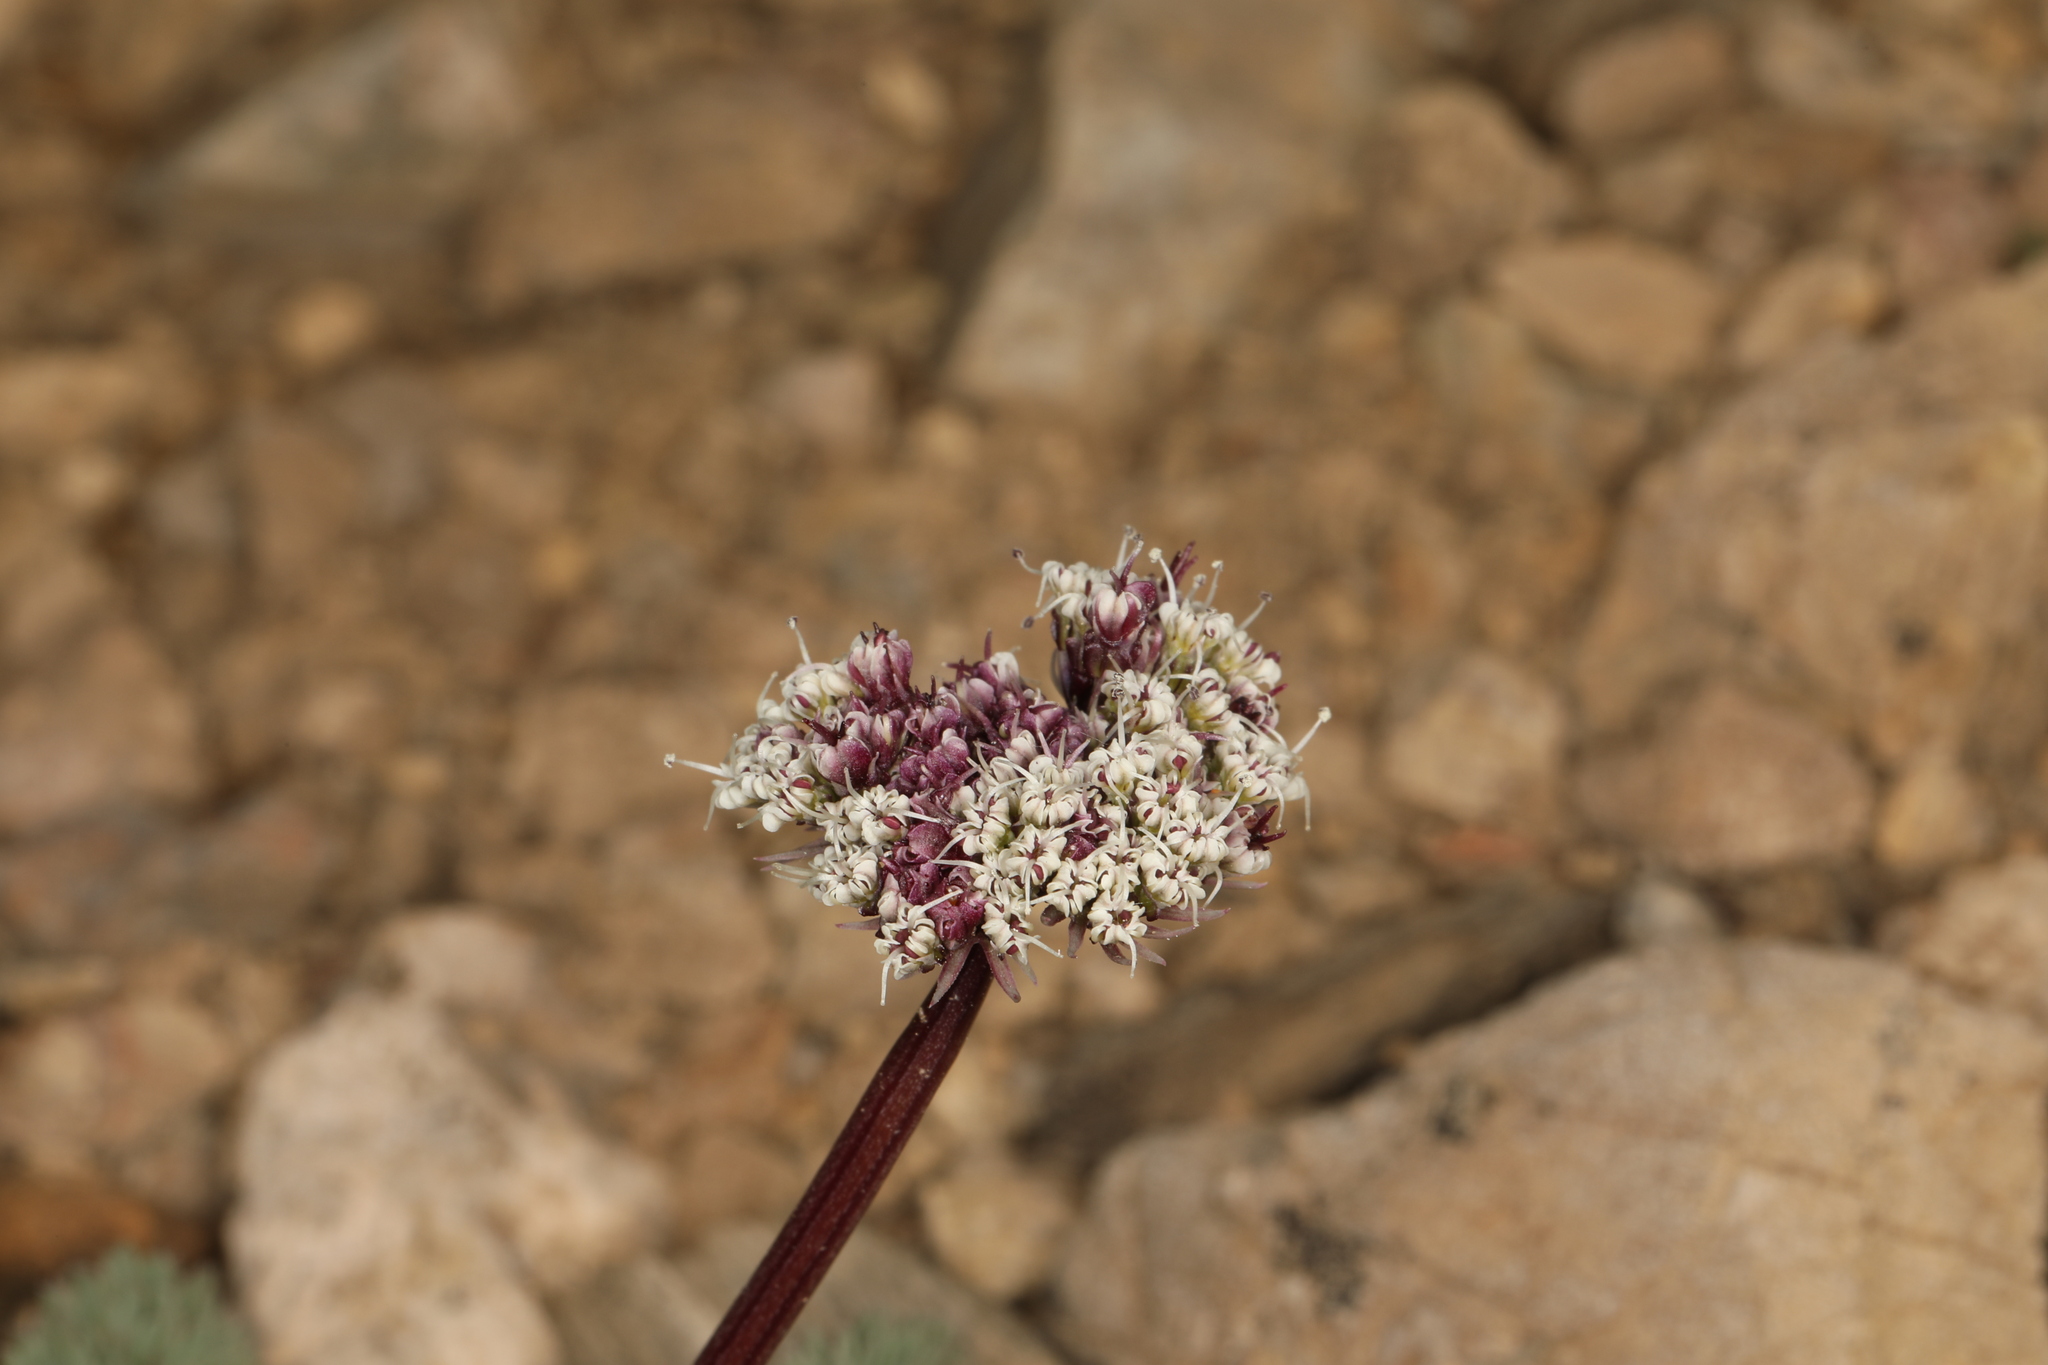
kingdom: Plantae
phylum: Tracheophyta
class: Magnoliopsida
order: Apiales
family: Apiaceae
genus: Aulospermum
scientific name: Aulospermum aboriginum
